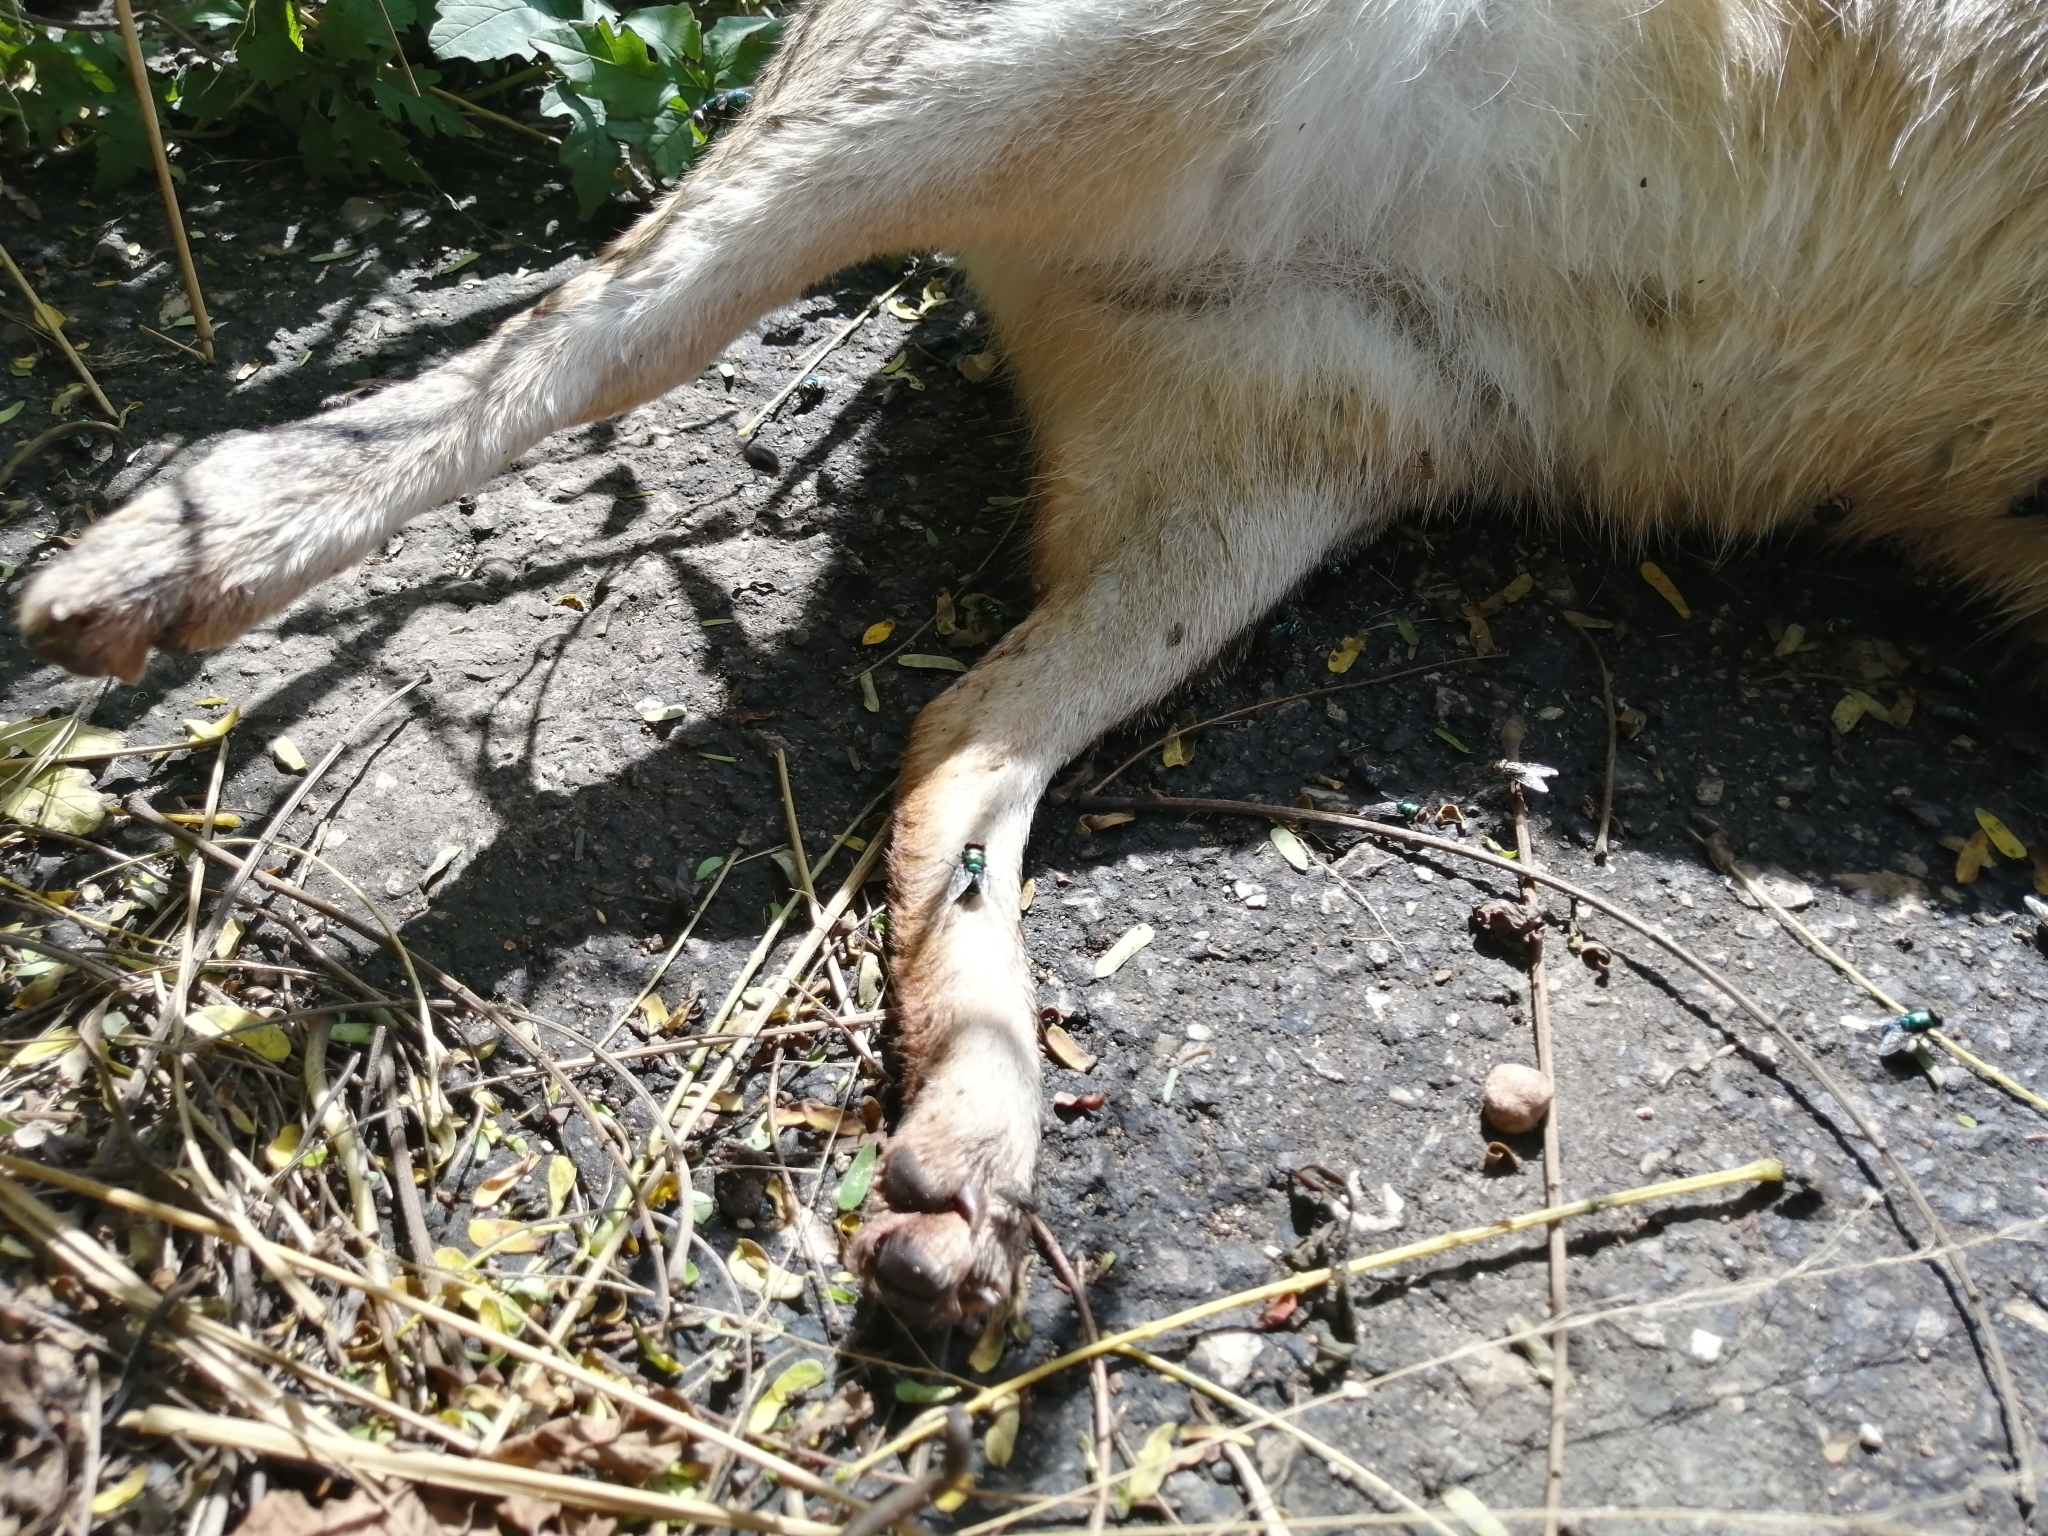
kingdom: Animalia
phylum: Chordata
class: Mammalia
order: Carnivora
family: Canidae
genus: Urocyon
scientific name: Urocyon cinereoargenteus
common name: Gray fox
